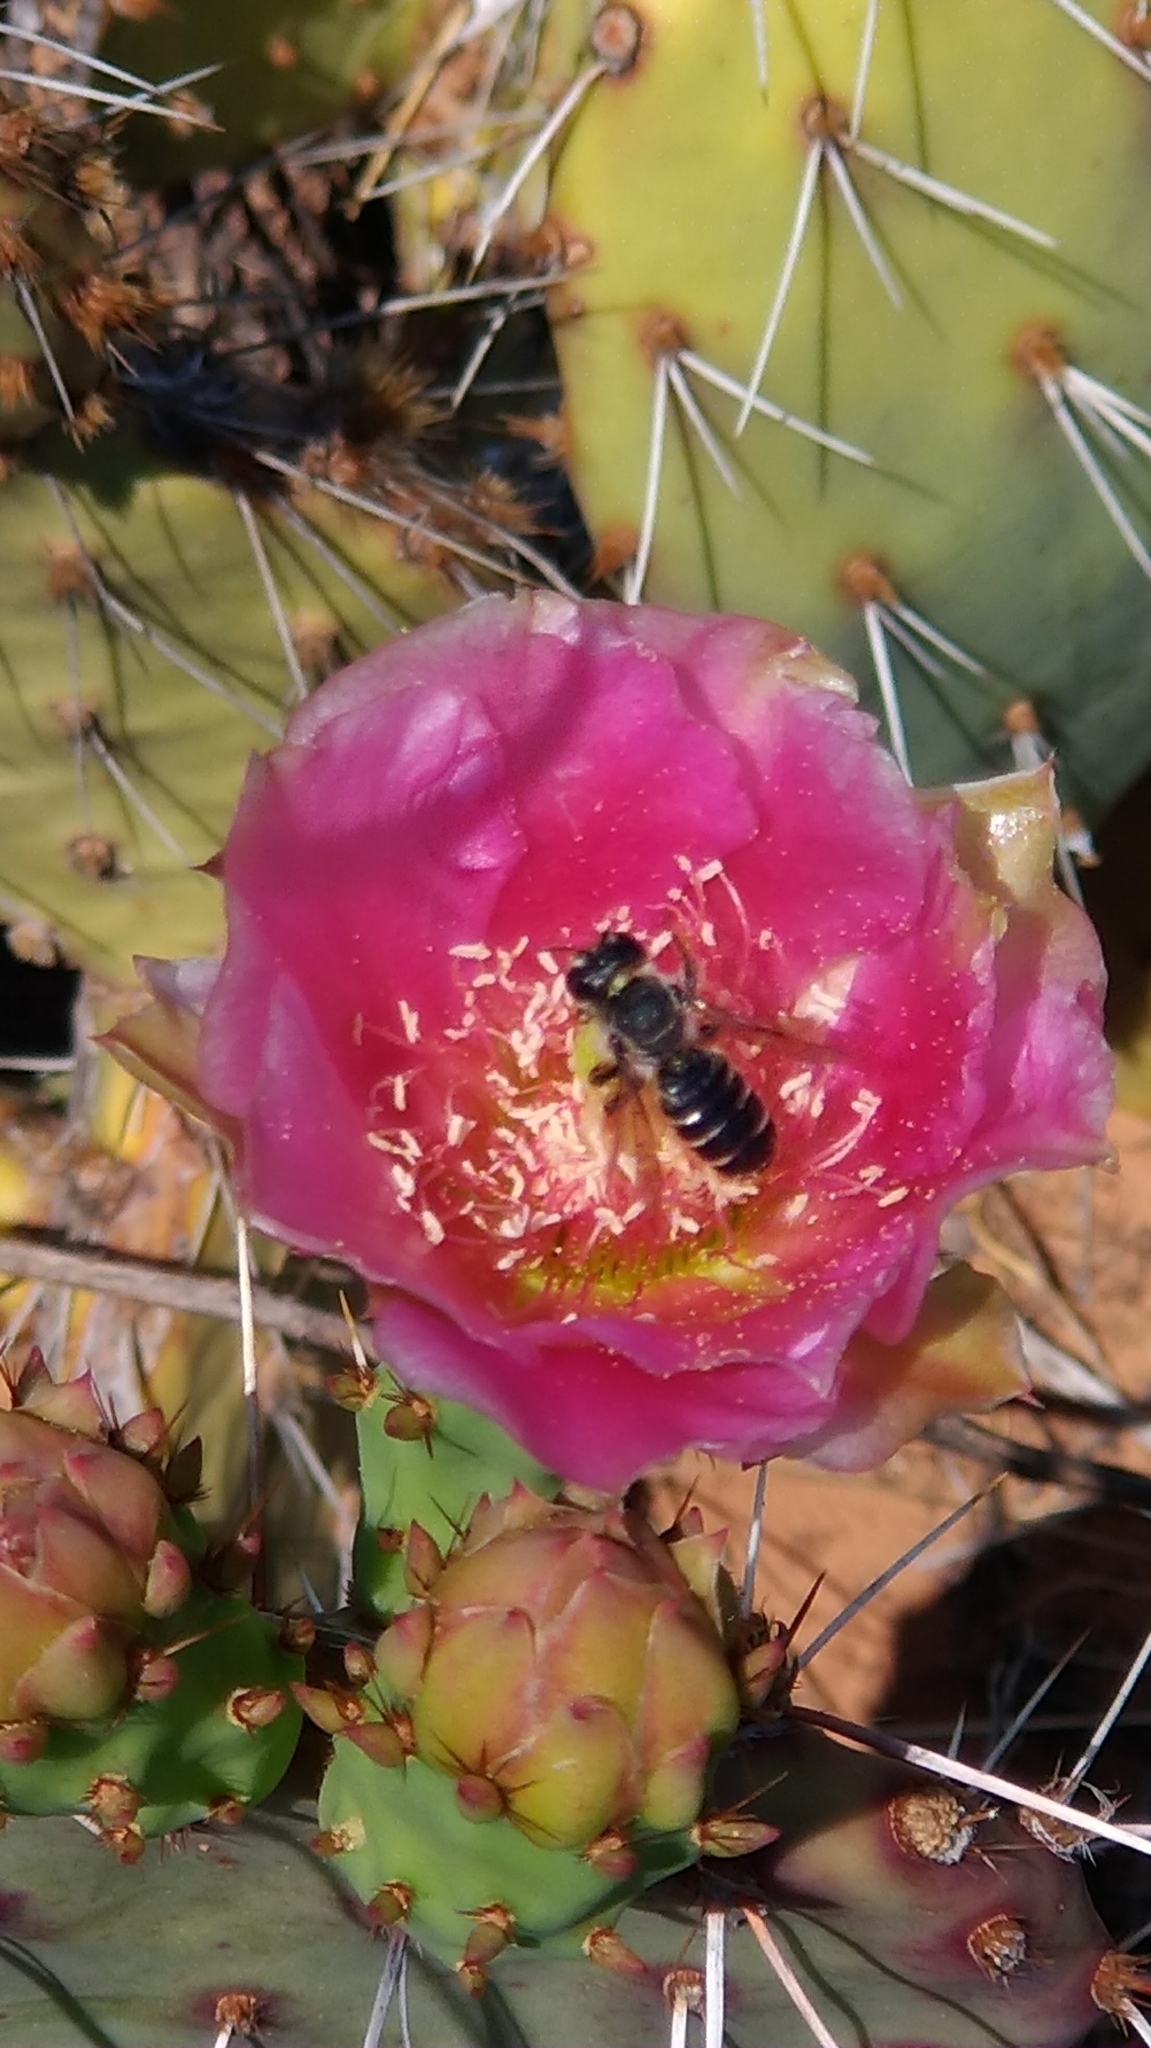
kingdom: Animalia
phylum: Arthropoda
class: Insecta
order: Hymenoptera
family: Megachilidae
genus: Lithurgopsis
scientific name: Lithurgopsis apicalis
